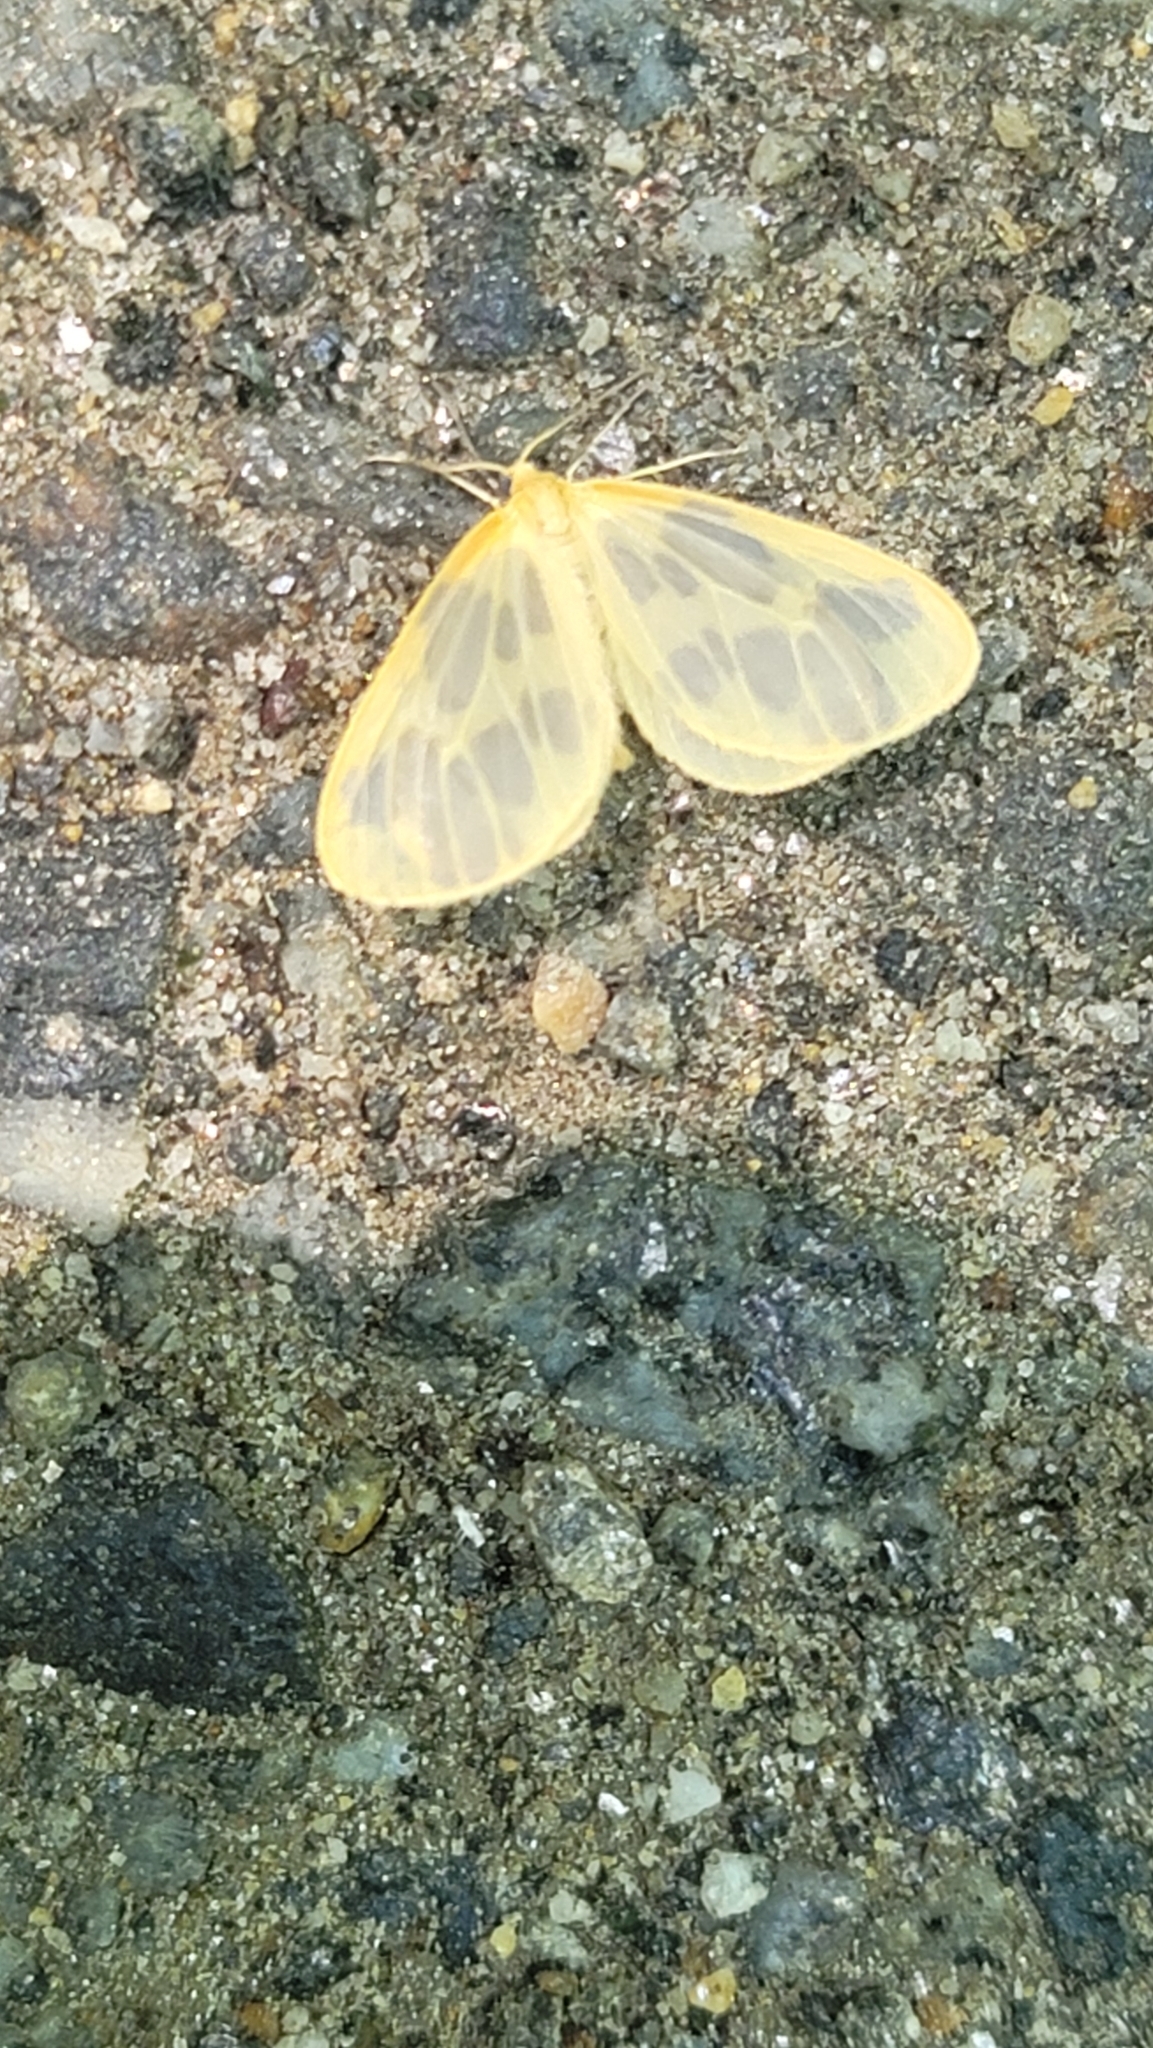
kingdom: Animalia
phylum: Arthropoda
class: Insecta
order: Lepidoptera
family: Geometridae
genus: Eubaphe
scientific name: Eubaphe mendica
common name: Beggar
